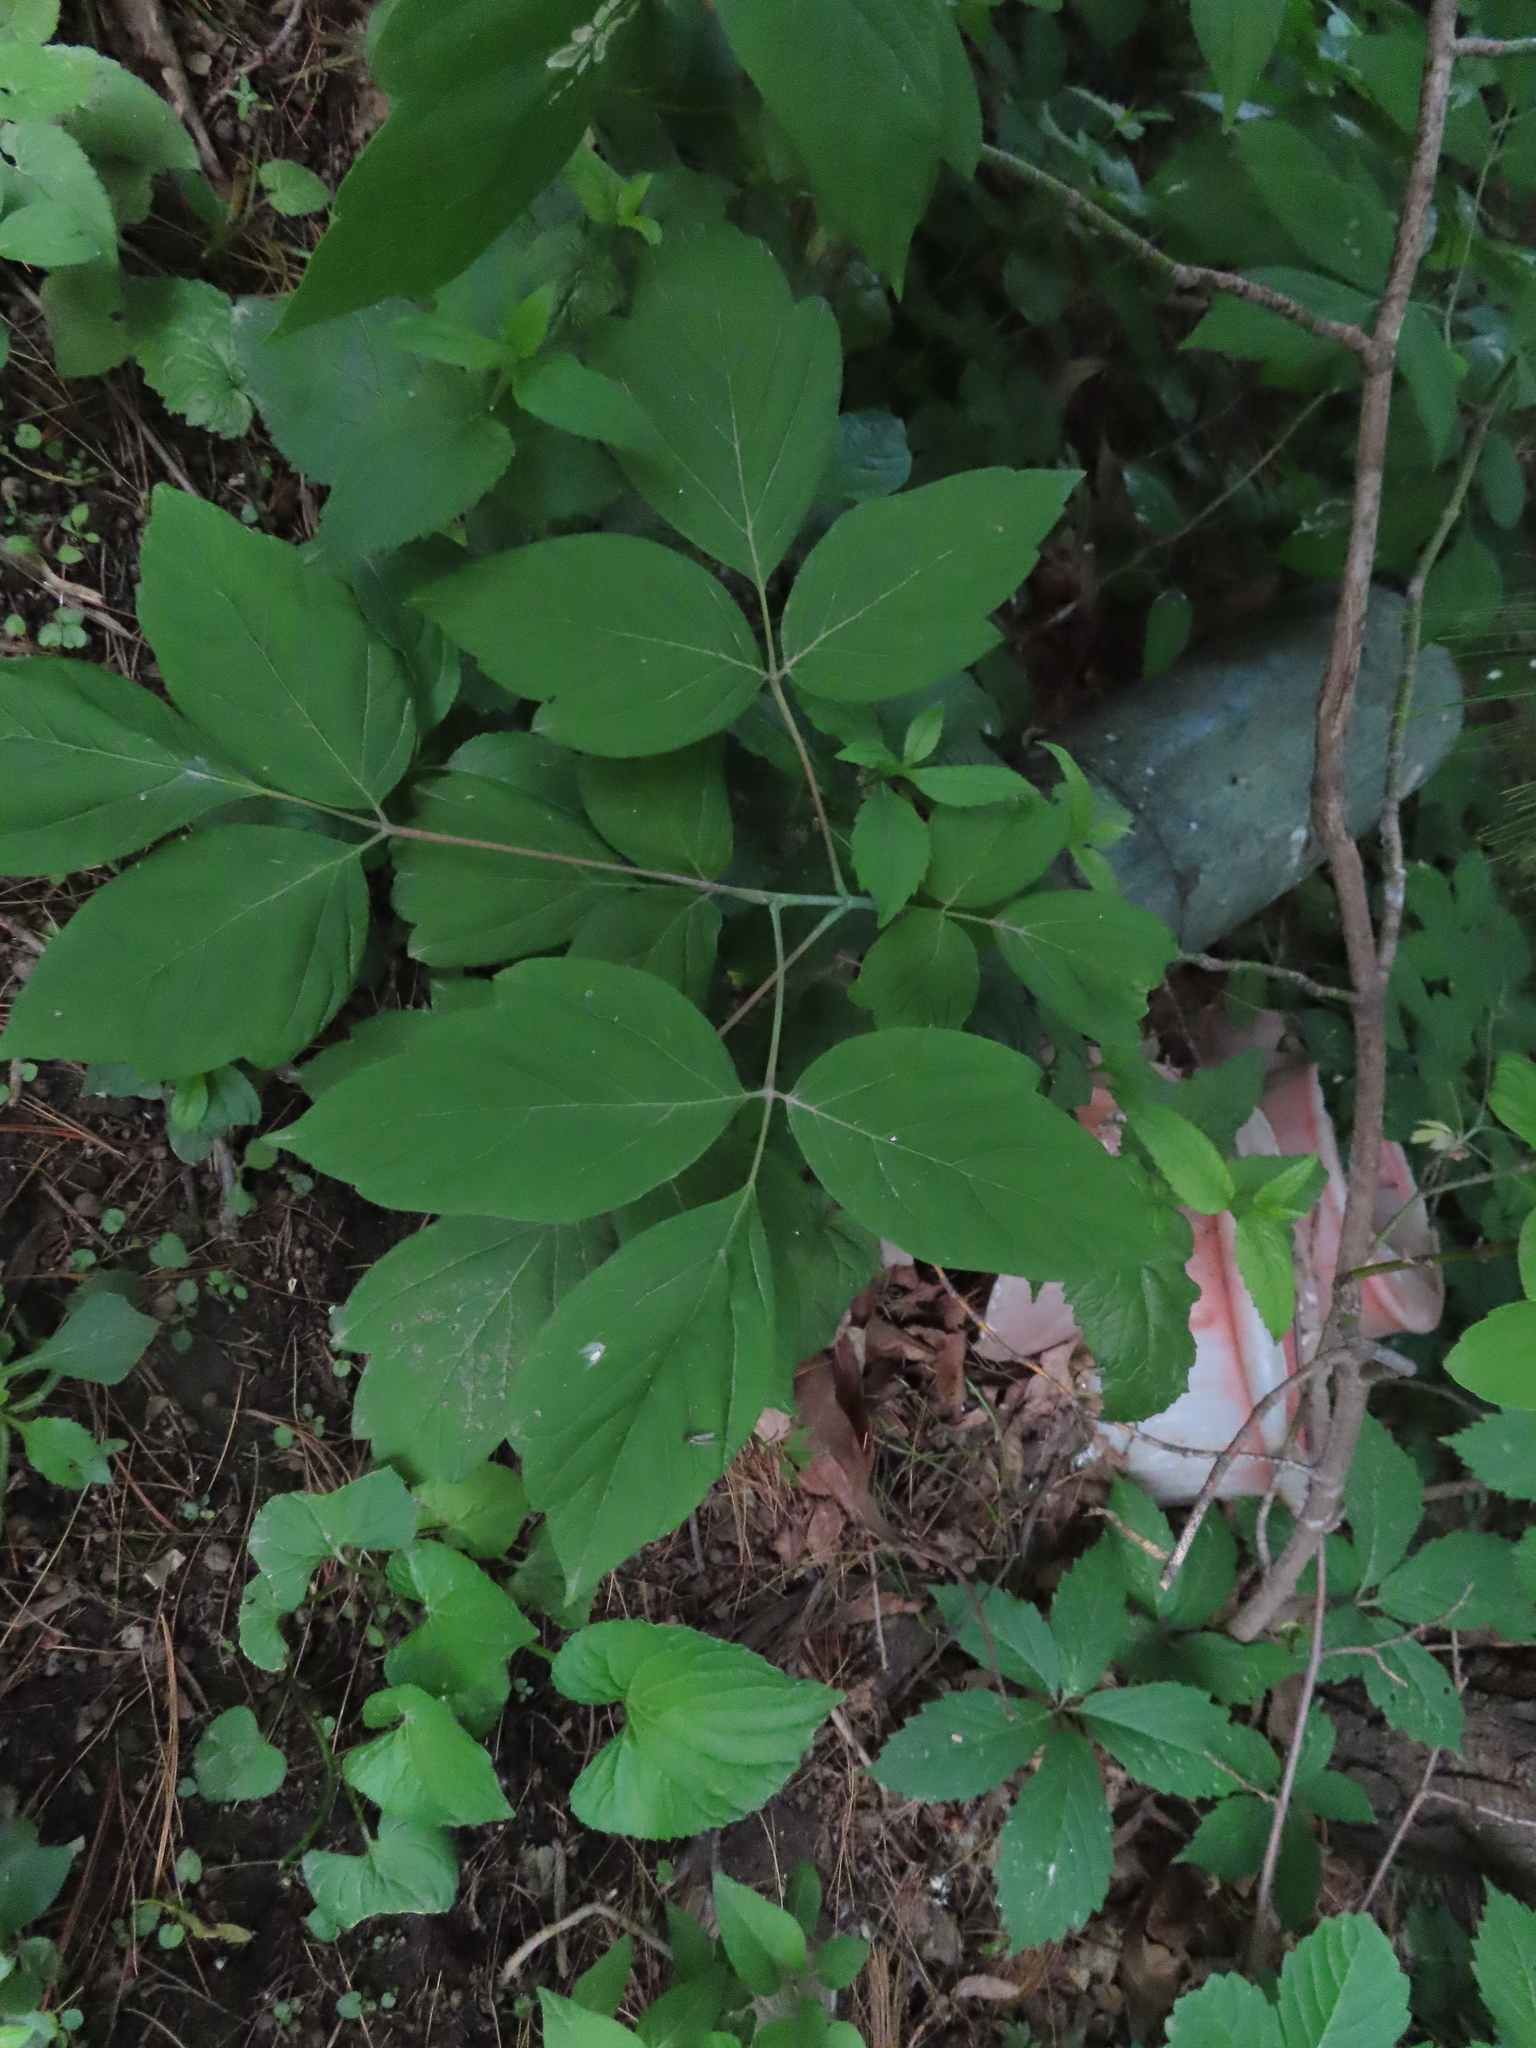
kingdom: Plantae
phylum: Tracheophyta
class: Magnoliopsida
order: Sapindales
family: Sapindaceae
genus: Acer
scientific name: Acer negundo
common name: Ashleaf maple
